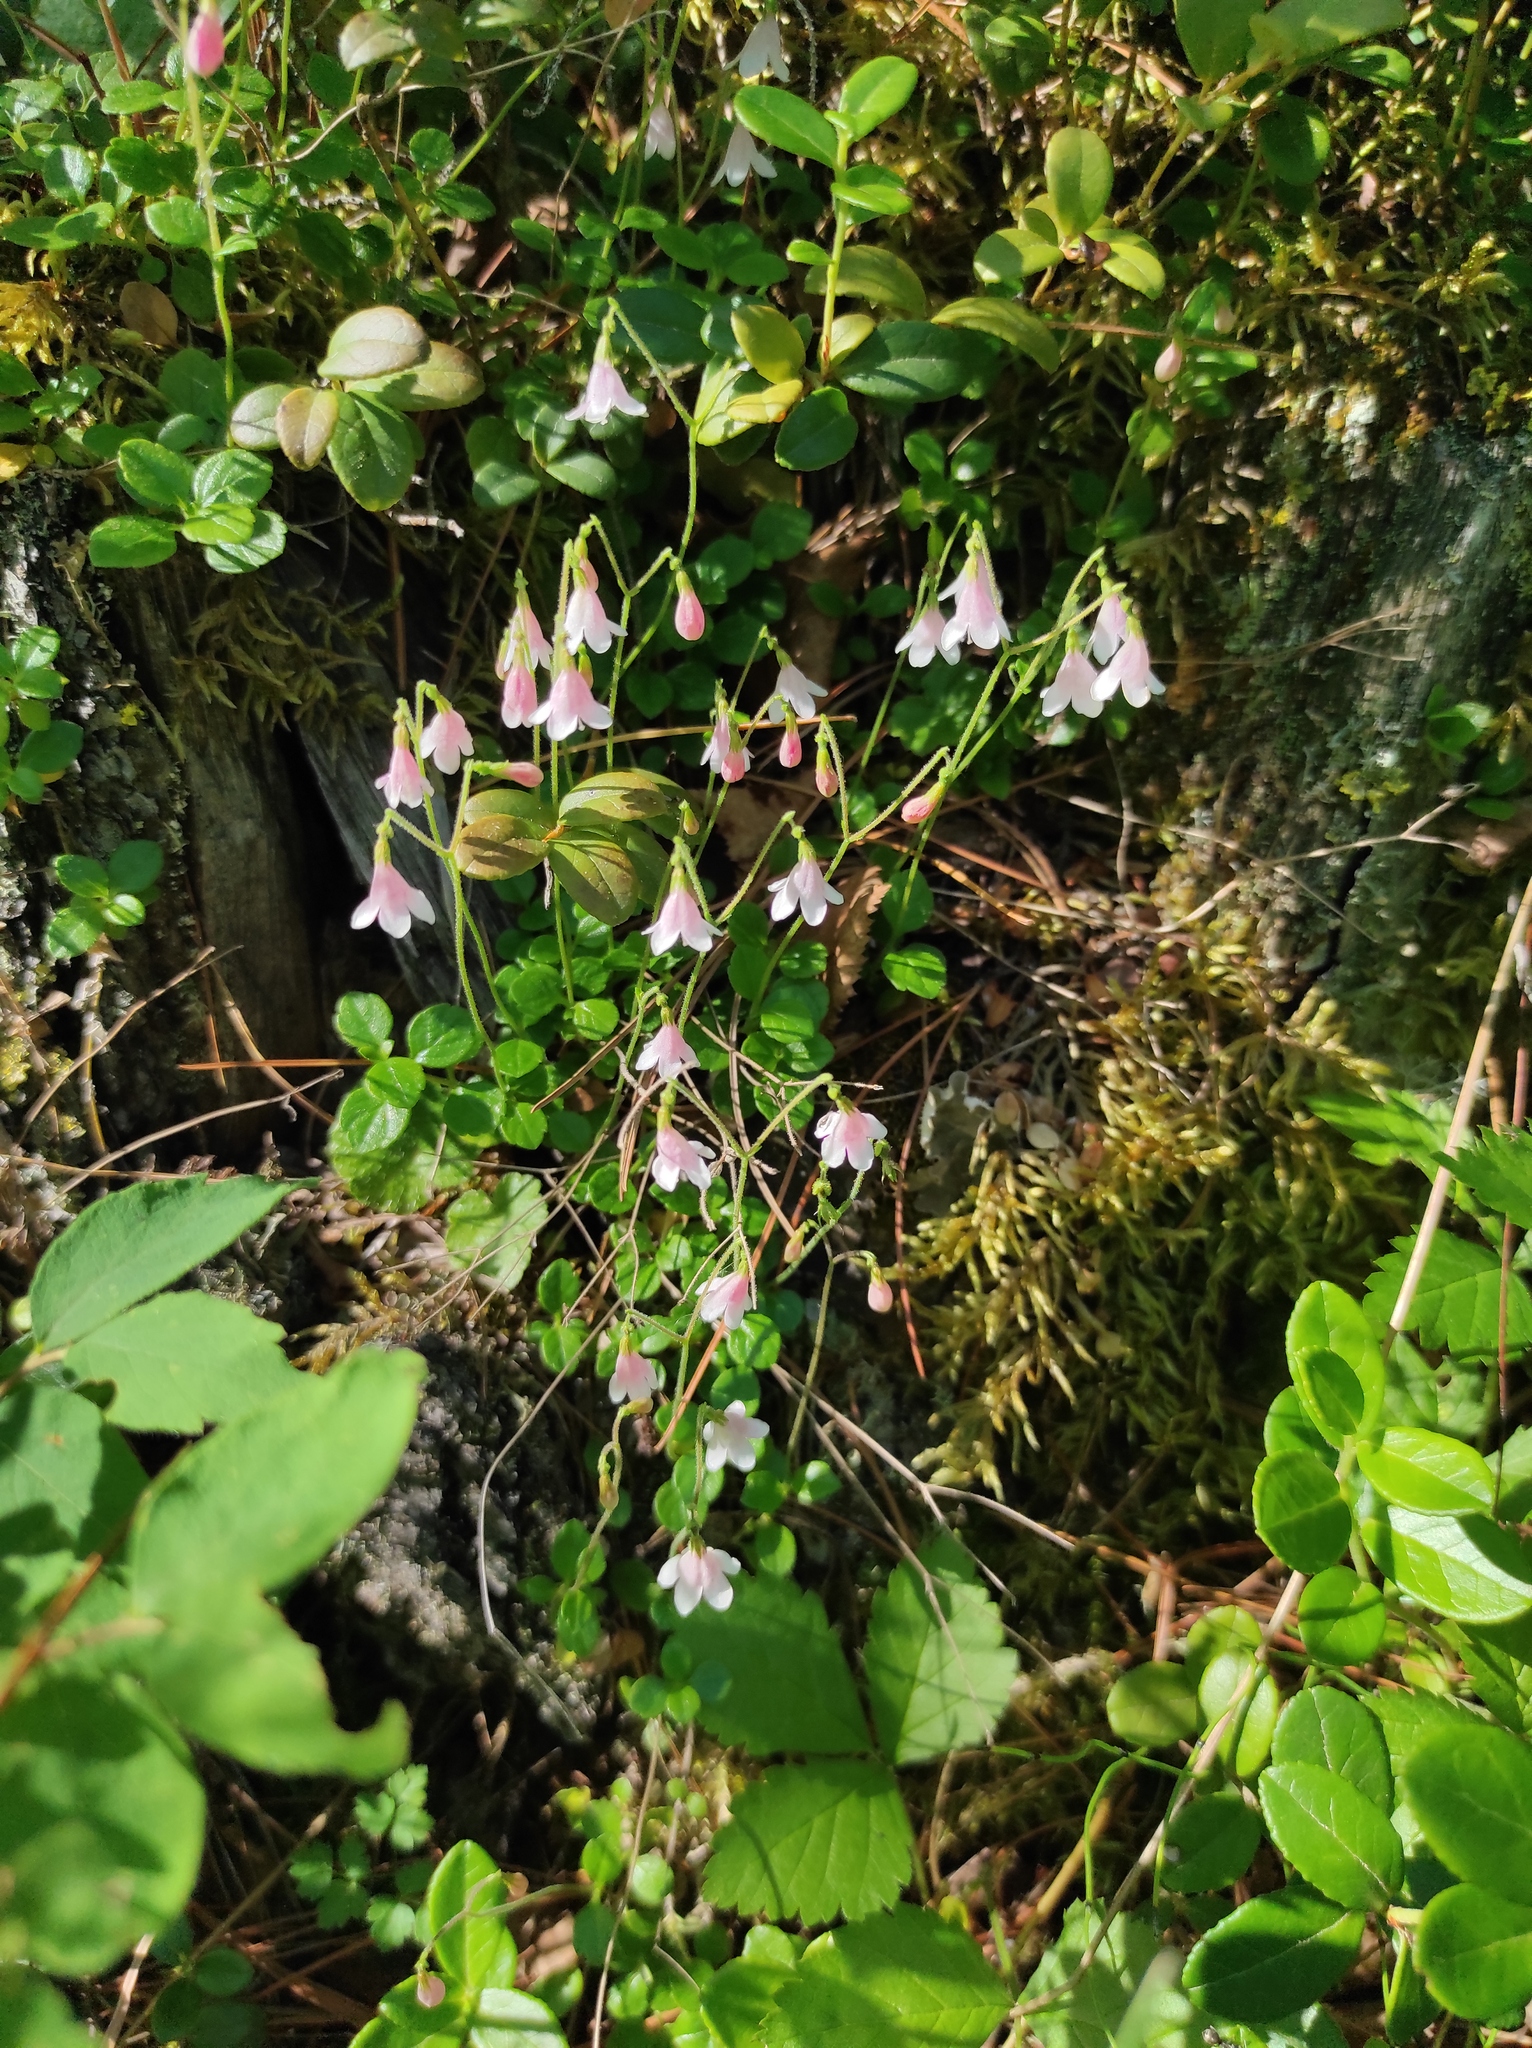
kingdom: Plantae
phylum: Tracheophyta
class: Magnoliopsida
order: Dipsacales
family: Caprifoliaceae
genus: Linnaea
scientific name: Linnaea borealis
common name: Twinflower
